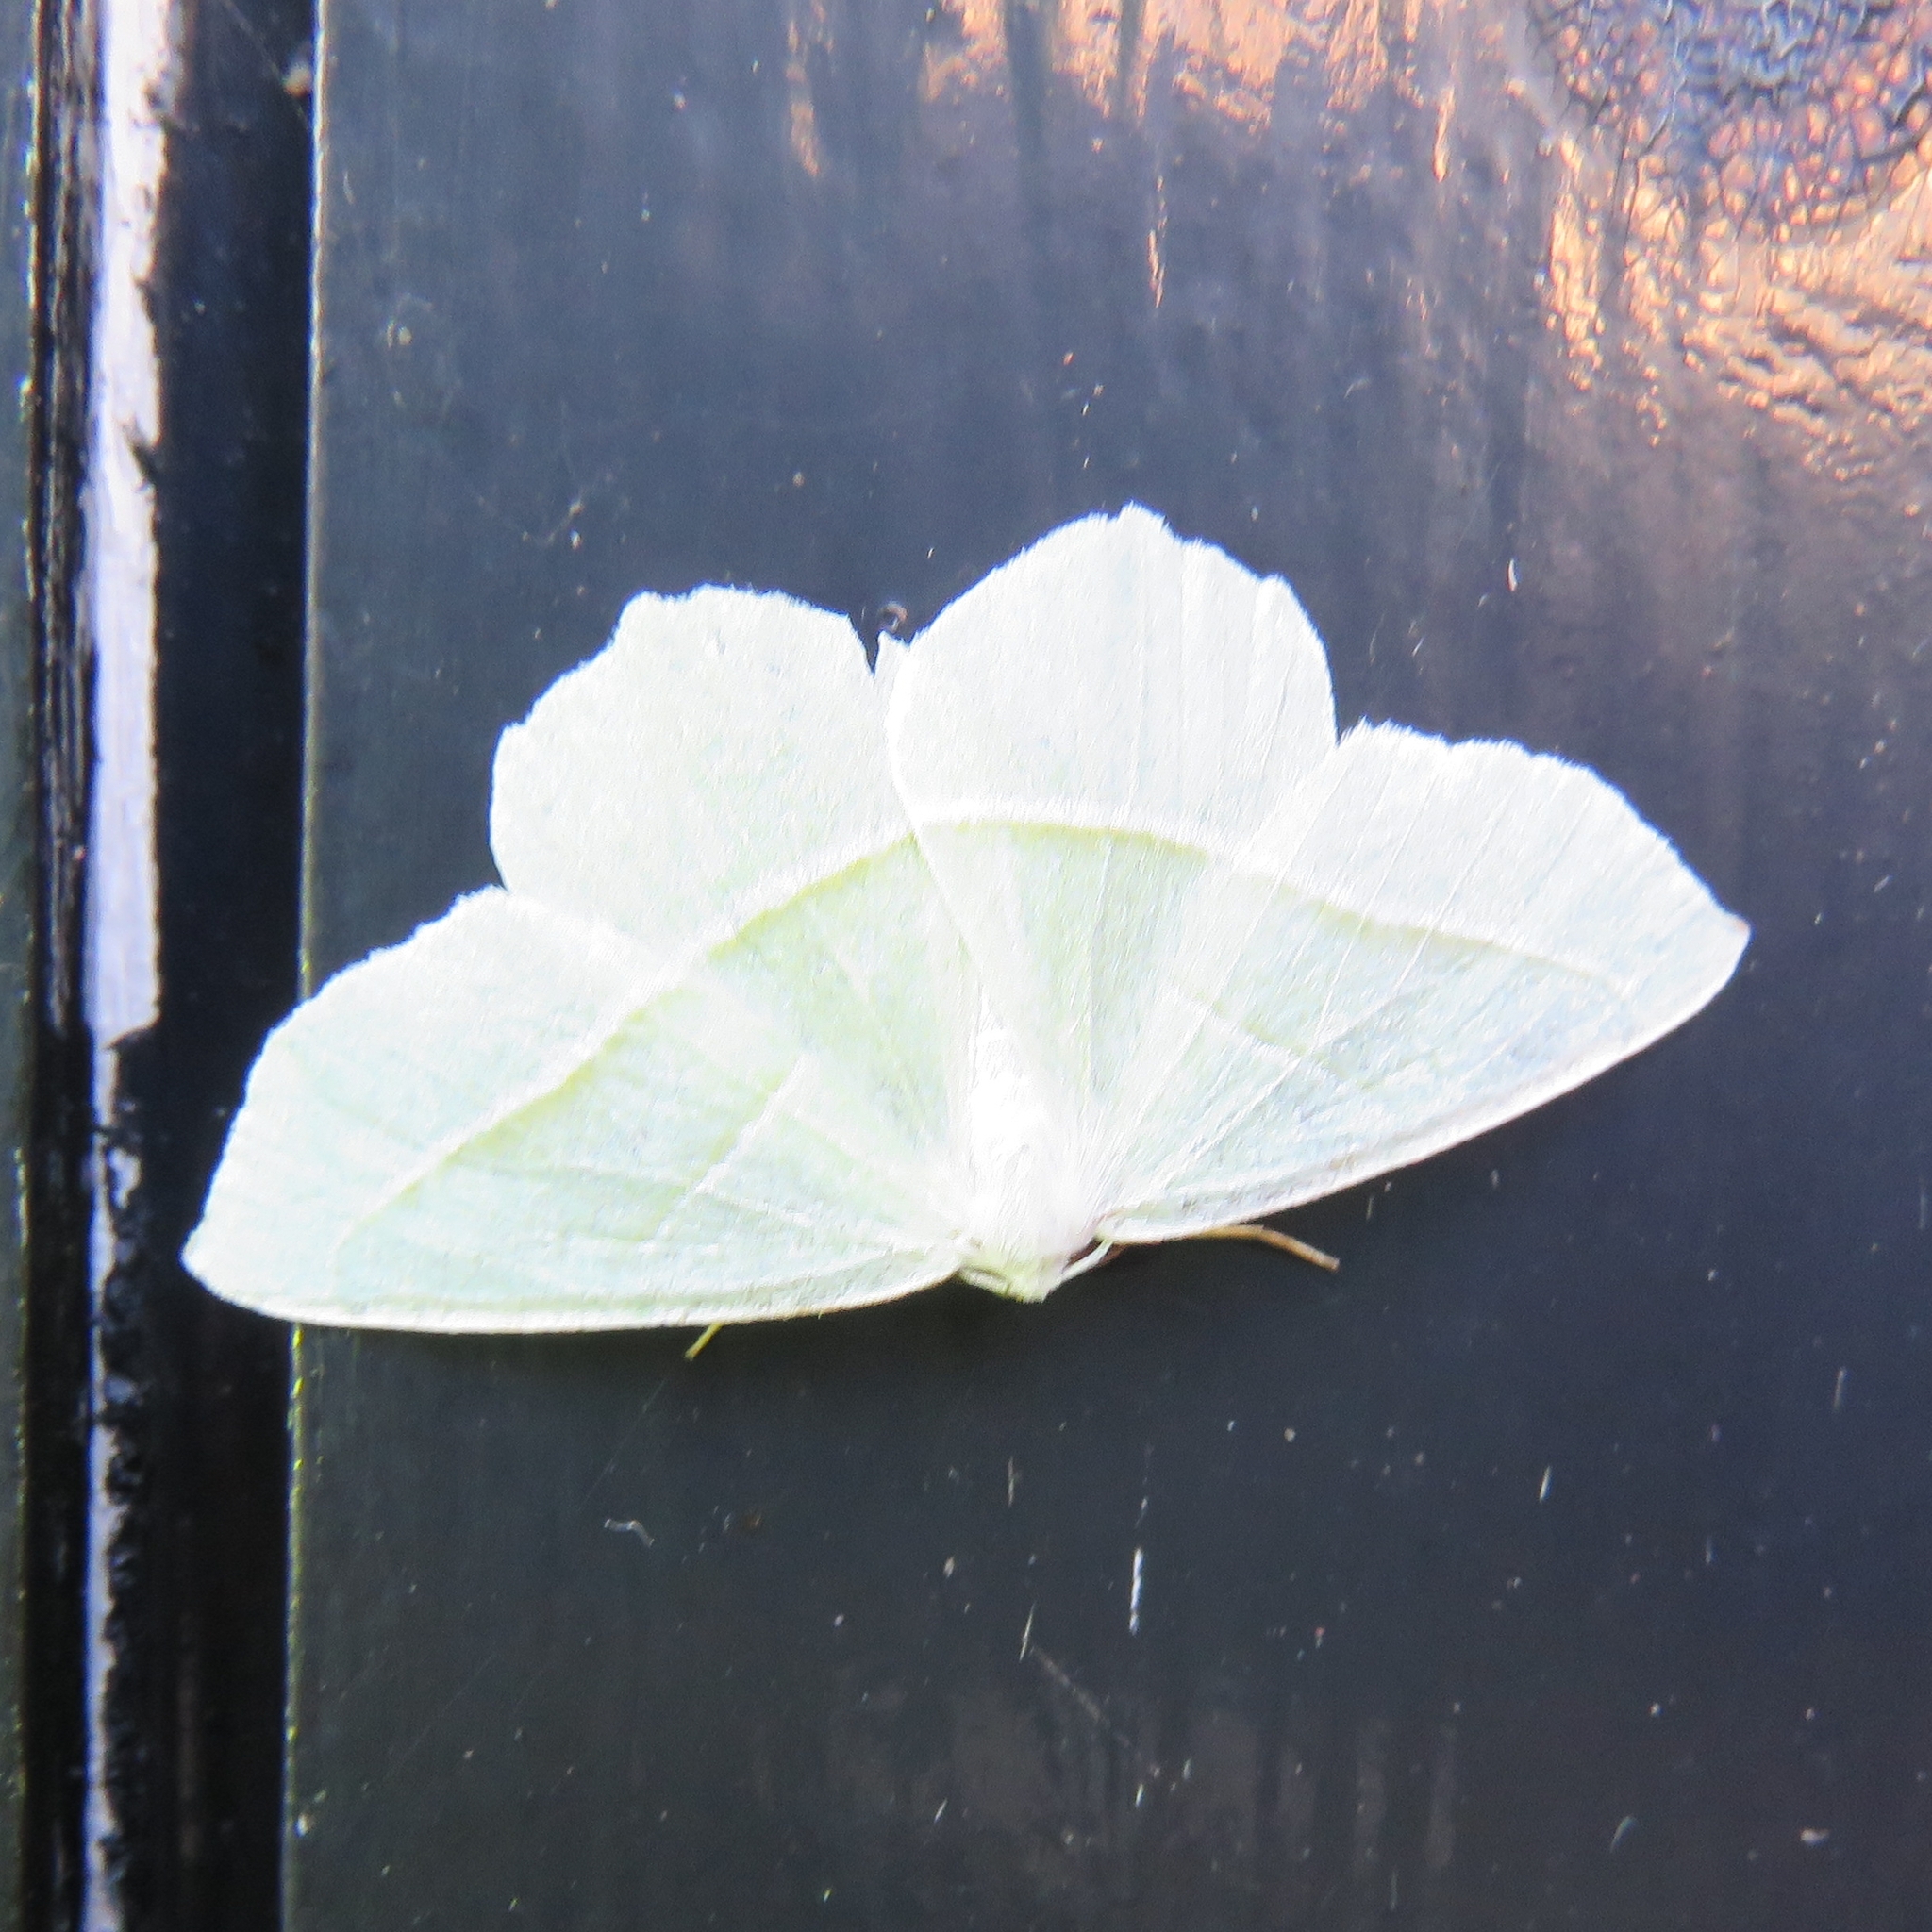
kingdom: Animalia
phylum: Arthropoda
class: Insecta
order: Lepidoptera
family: Geometridae
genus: Campaea
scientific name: Campaea margaritaria
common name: Light emerald
